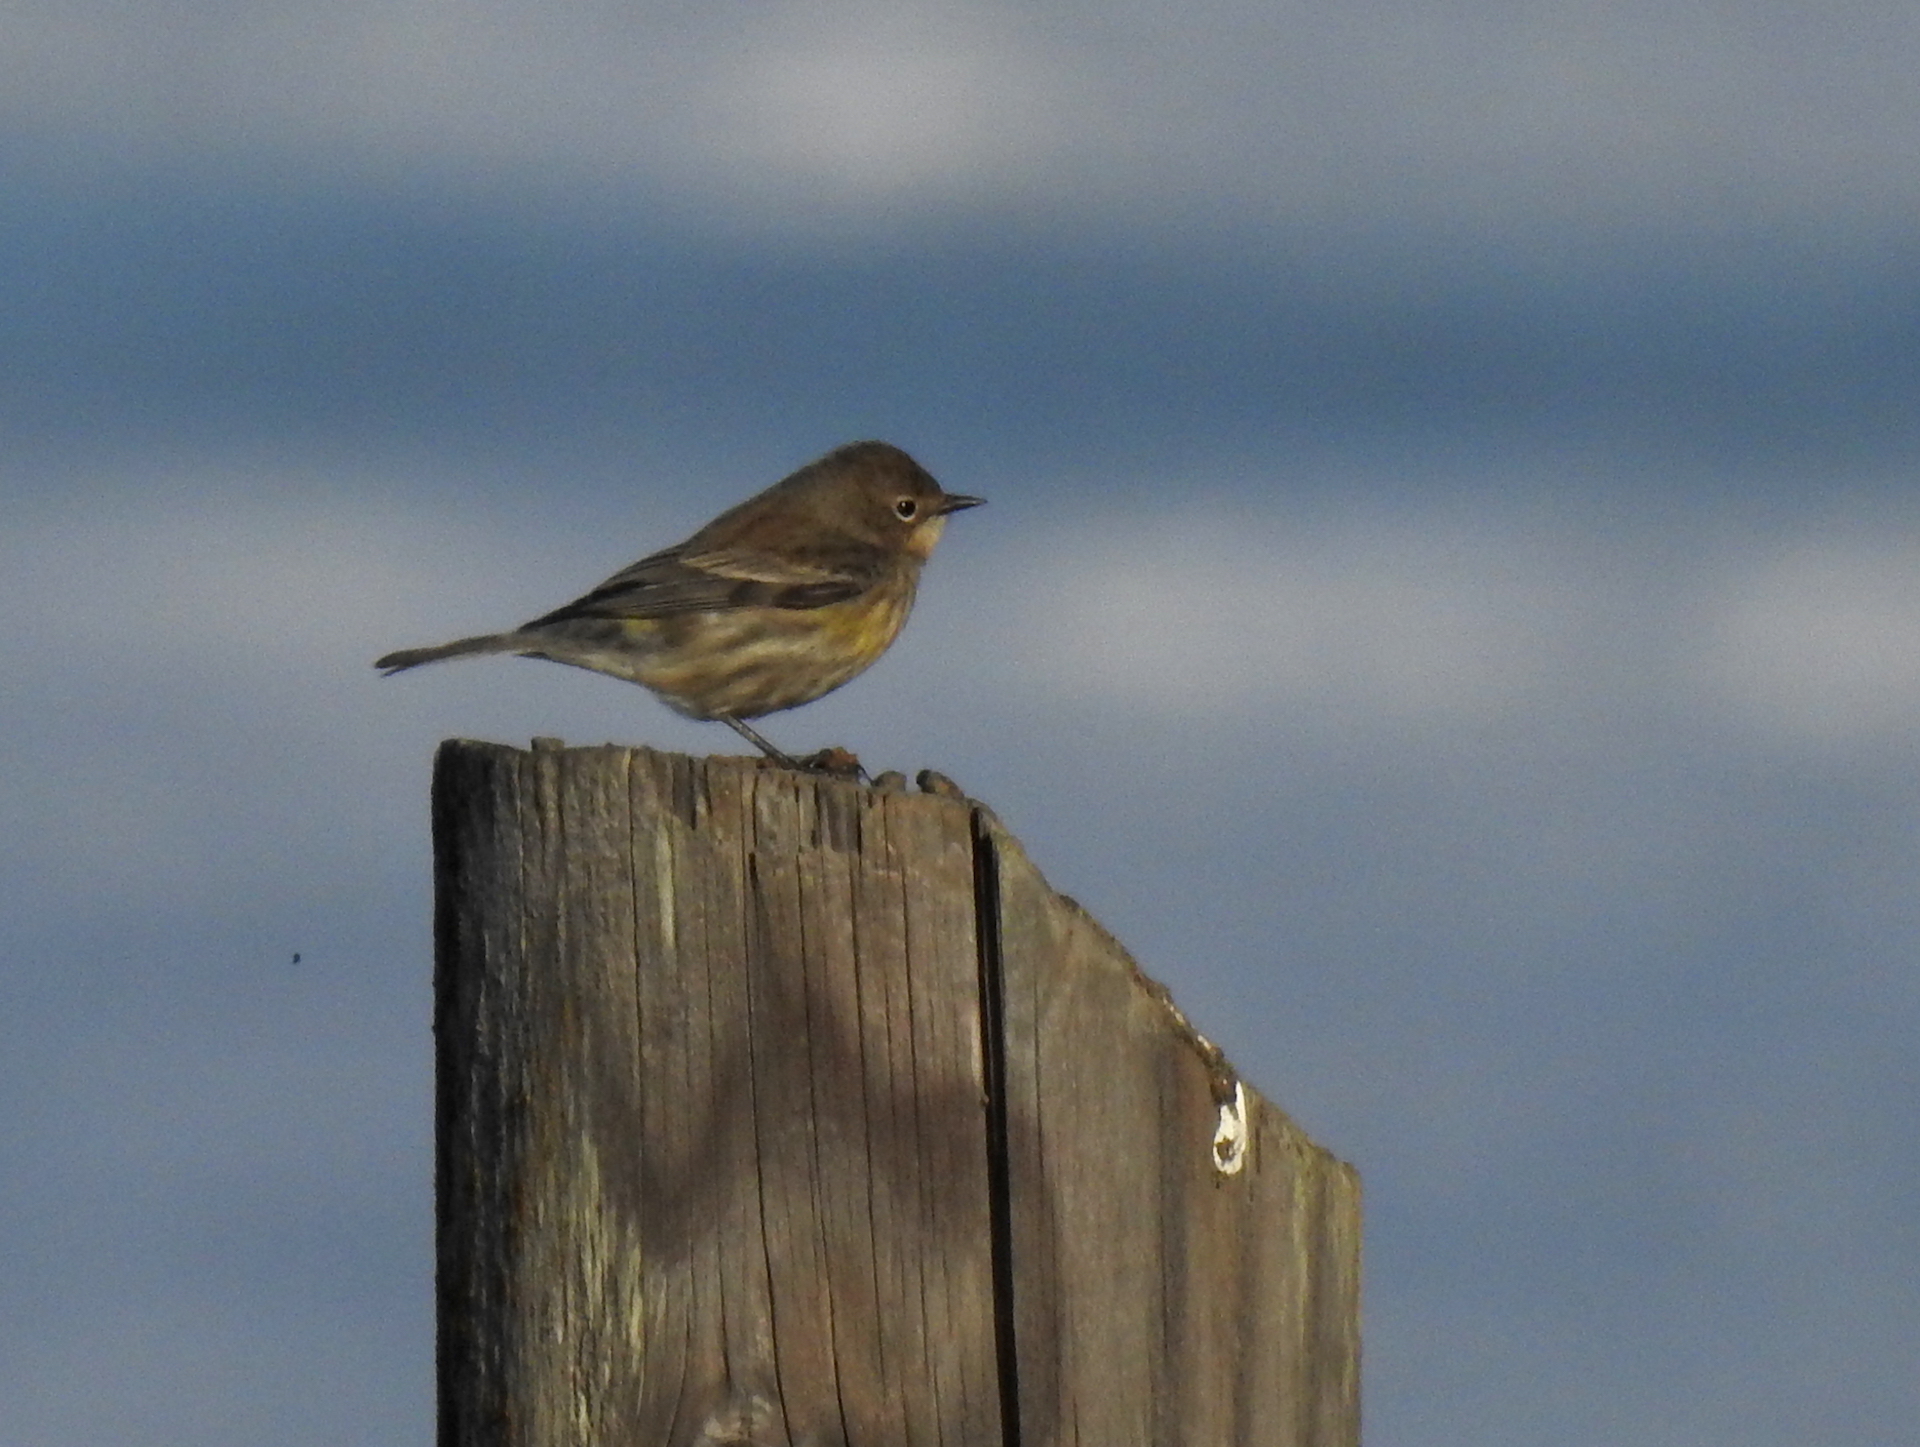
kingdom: Animalia
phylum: Chordata
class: Aves
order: Passeriformes
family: Parulidae
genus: Setophaga
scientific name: Setophaga auduboni
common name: Audubon's warbler
